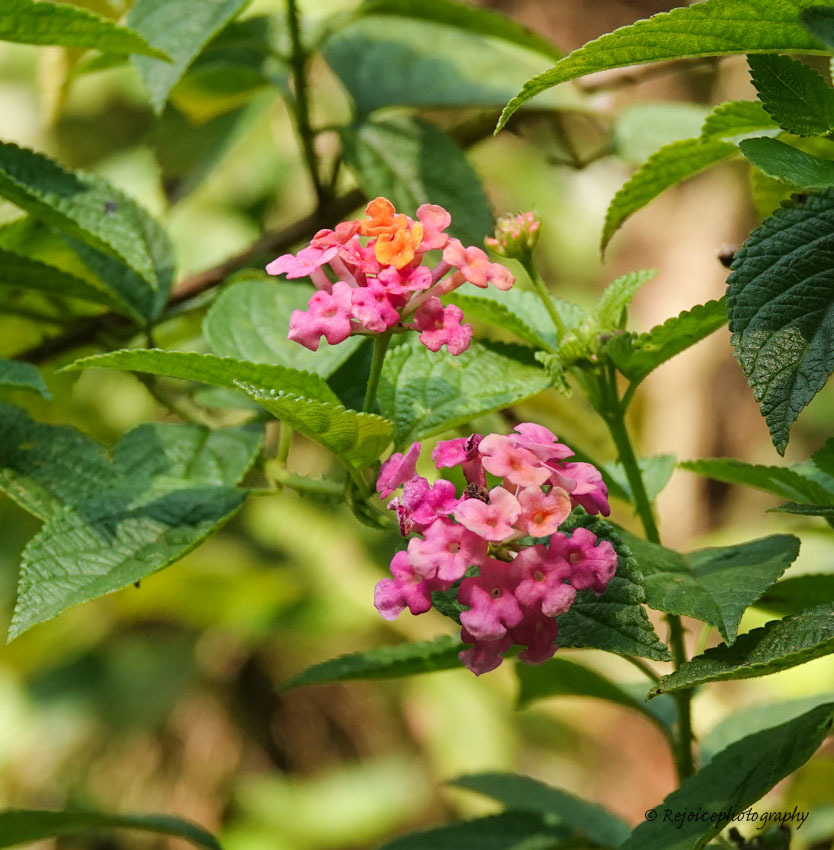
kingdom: Plantae
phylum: Tracheophyta
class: Magnoliopsida
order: Lamiales
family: Verbenaceae
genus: Lantana
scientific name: Lantana camara
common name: Lantana
